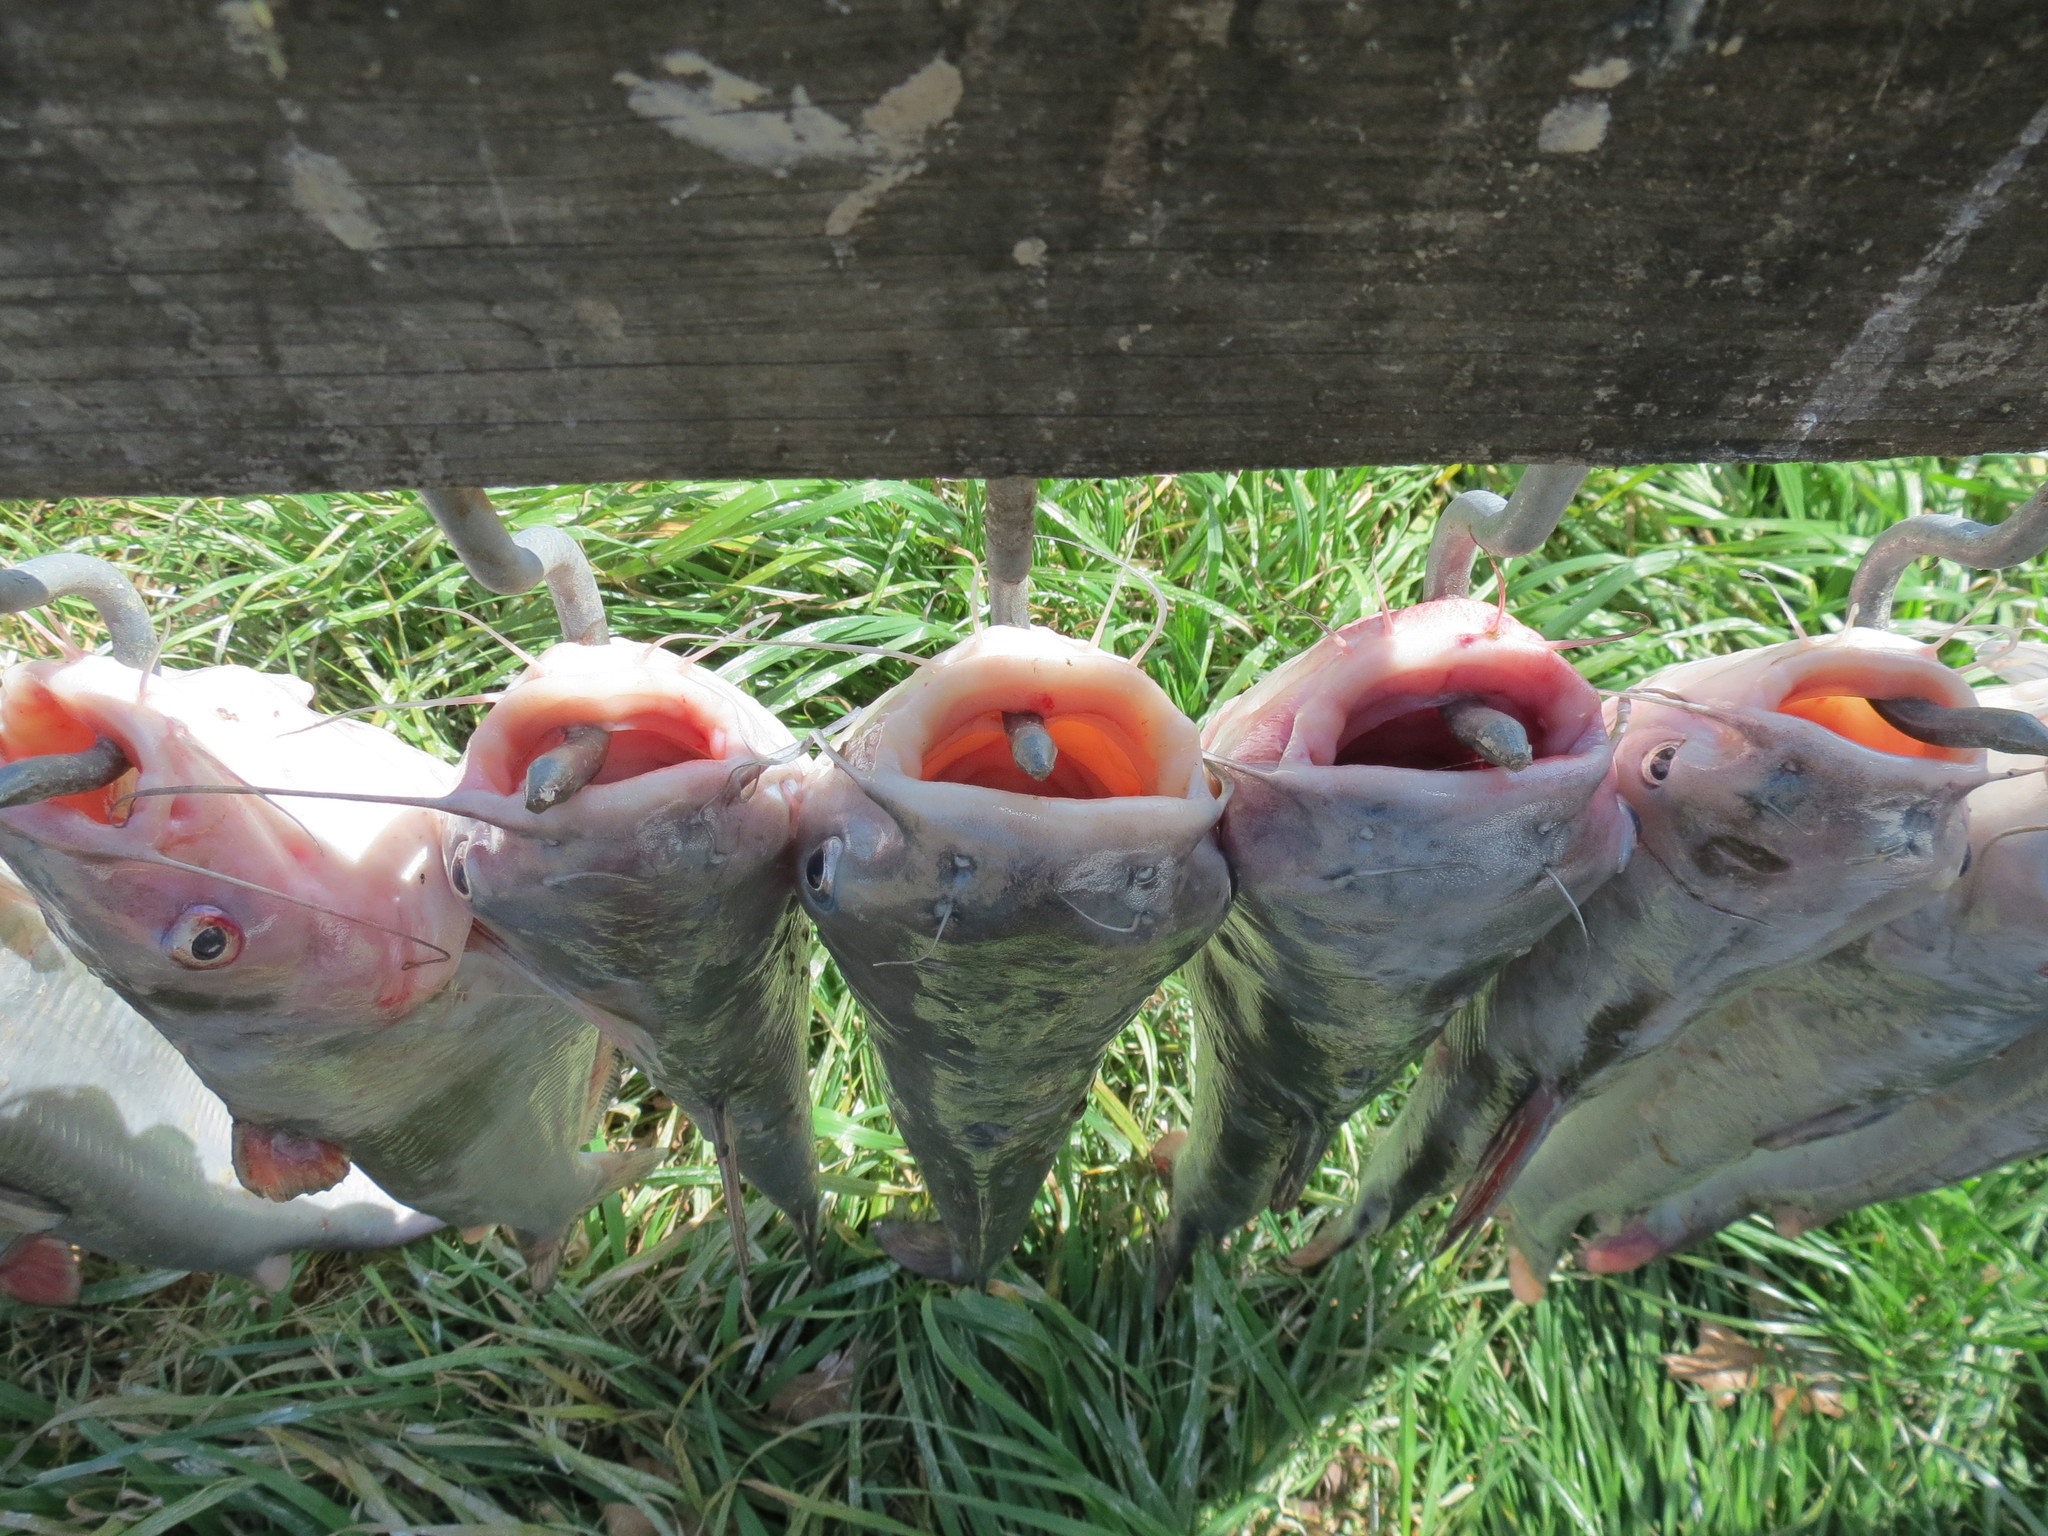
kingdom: Animalia
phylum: Chordata
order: Siluriformes
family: Ictaluridae
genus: Ictalurus
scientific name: Ictalurus punctatus
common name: Channel catfish
